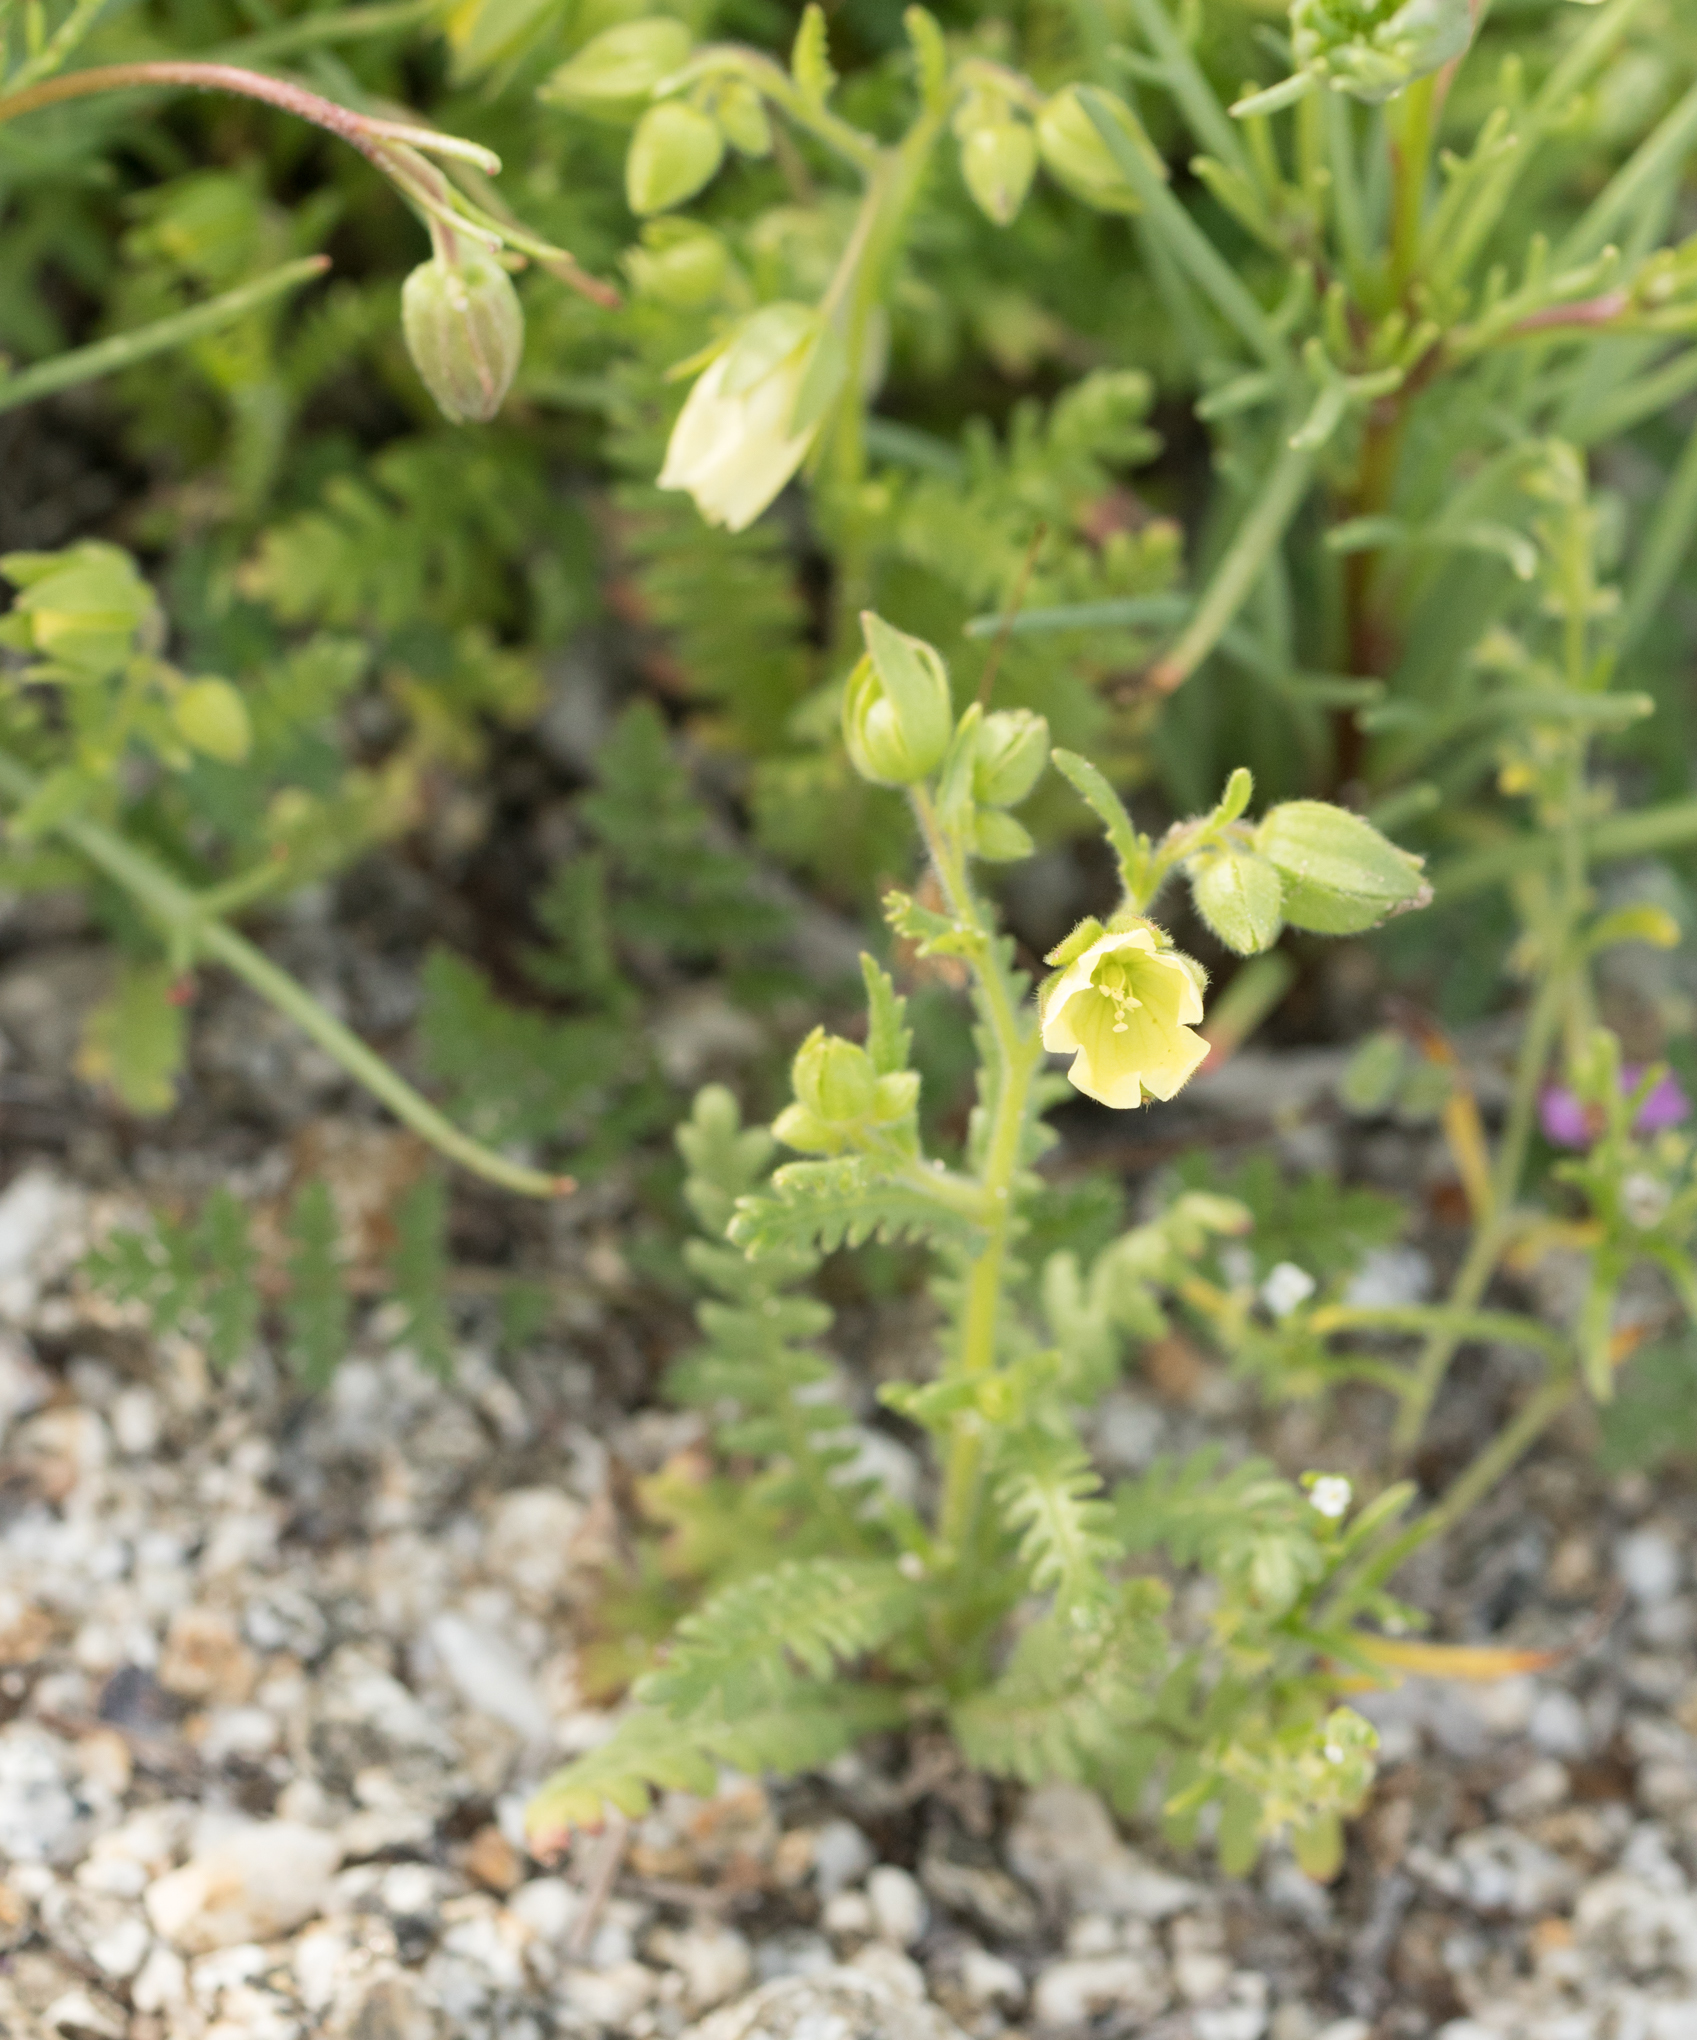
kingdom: Plantae
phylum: Tracheophyta
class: Magnoliopsida
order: Boraginales
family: Hydrophyllaceae
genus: Emmenanthe
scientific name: Emmenanthe penduliflora
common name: Whispering-bells
